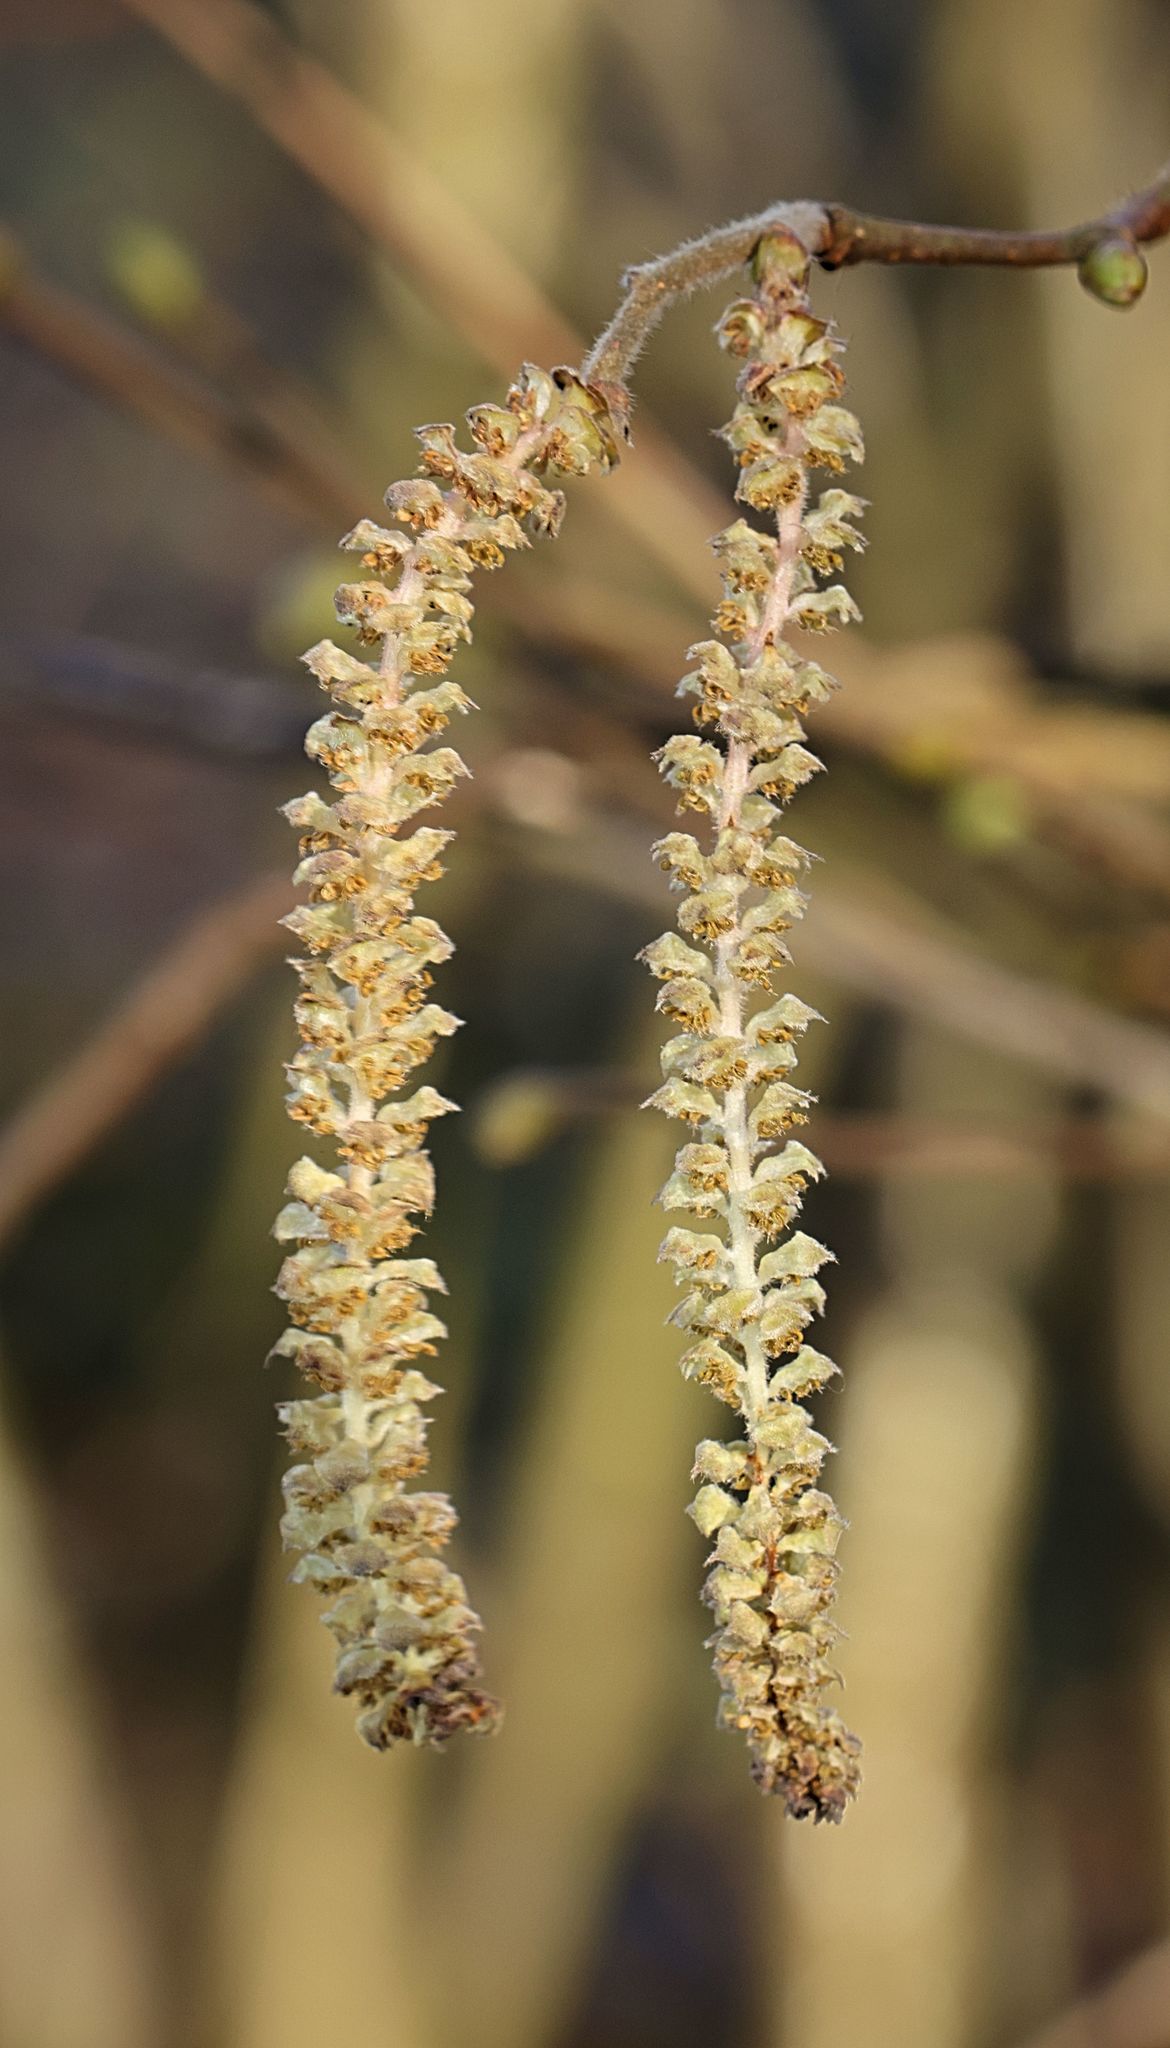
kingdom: Plantae
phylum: Tracheophyta
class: Magnoliopsida
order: Fagales
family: Betulaceae
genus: Corylus
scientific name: Corylus avellana
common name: European hazel
